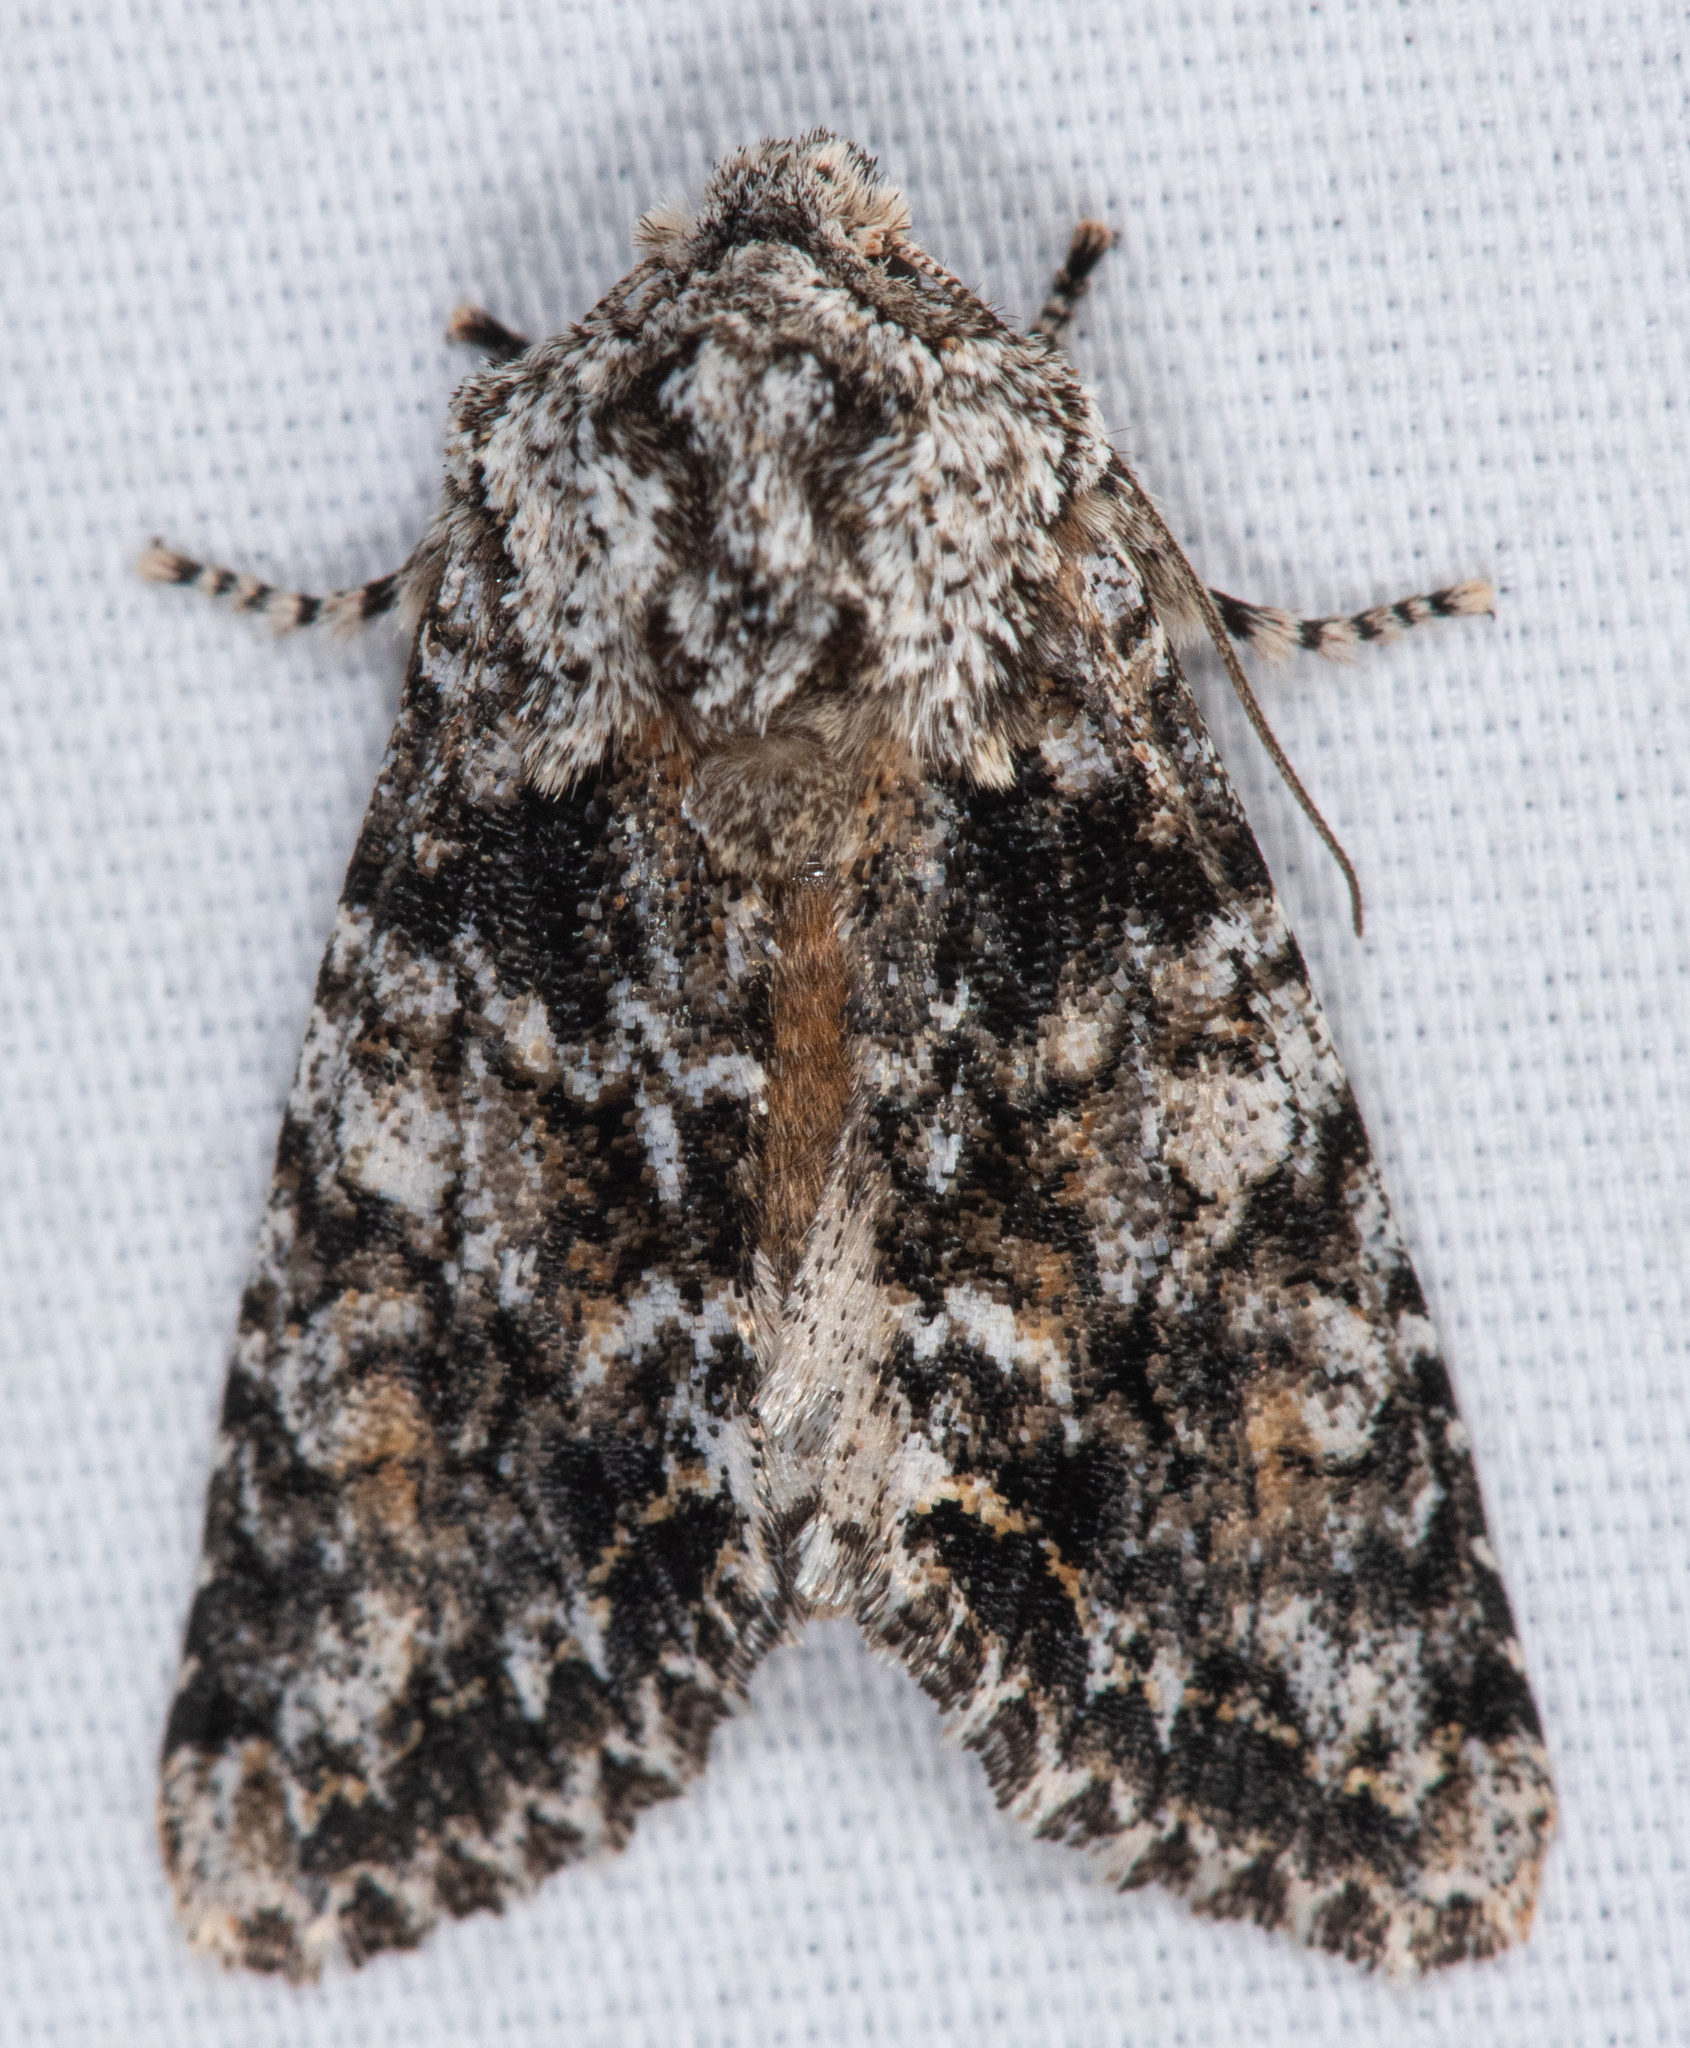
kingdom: Animalia
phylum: Arthropoda
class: Insecta
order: Lepidoptera
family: Noctuidae
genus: Egira
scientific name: Egira februalis
